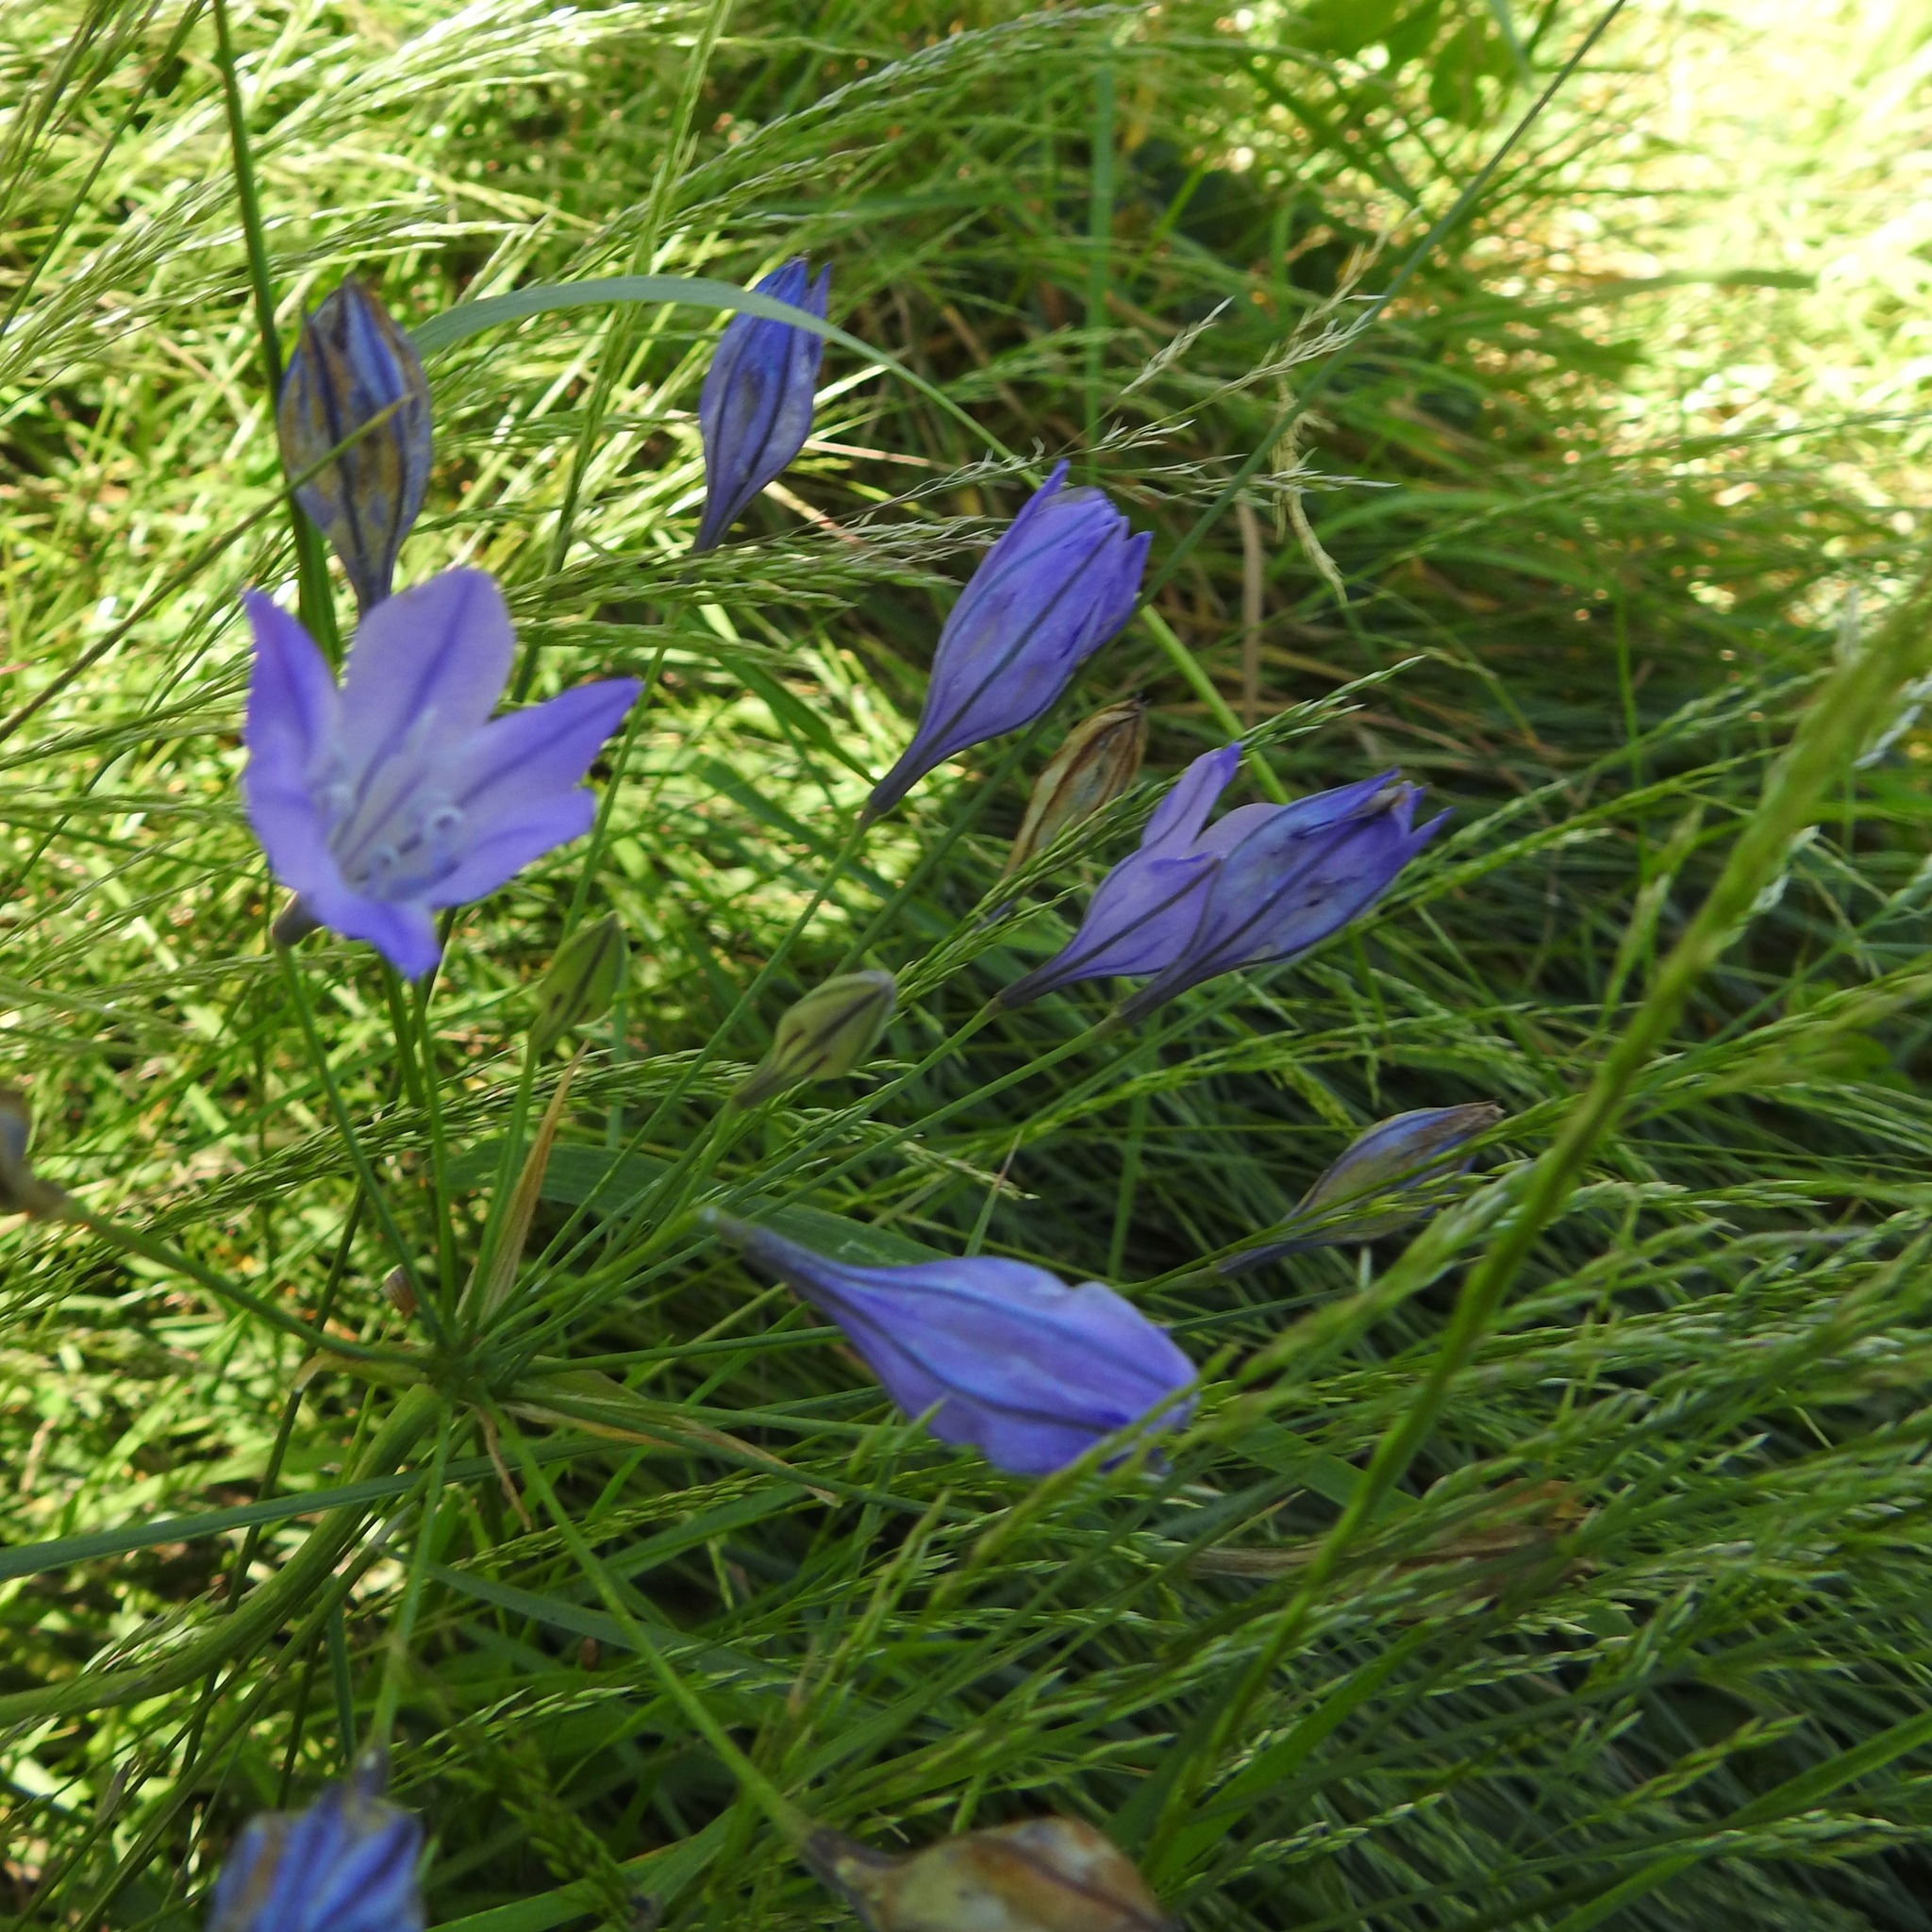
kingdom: Plantae
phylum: Tracheophyta
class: Liliopsida
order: Asparagales
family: Asparagaceae
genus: Triteleia
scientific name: Triteleia laxa
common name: Triplet-lily
